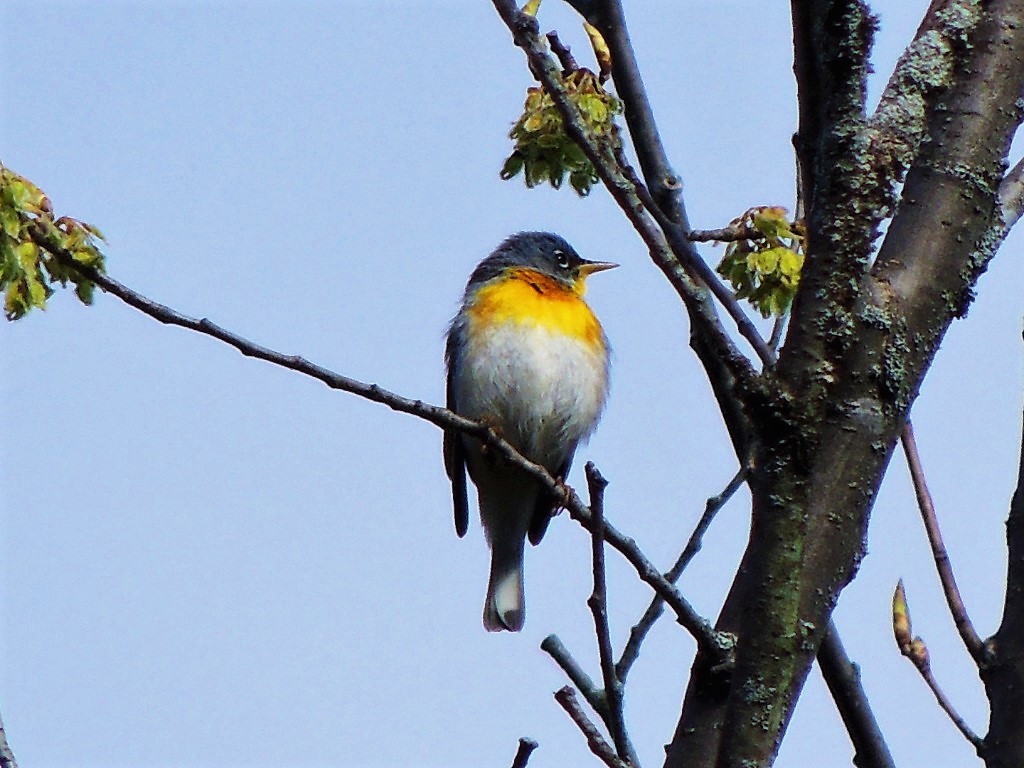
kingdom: Animalia
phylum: Chordata
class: Aves
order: Passeriformes
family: Parulidae
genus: Setophaga
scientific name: Setophaga americana
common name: Northern parula
